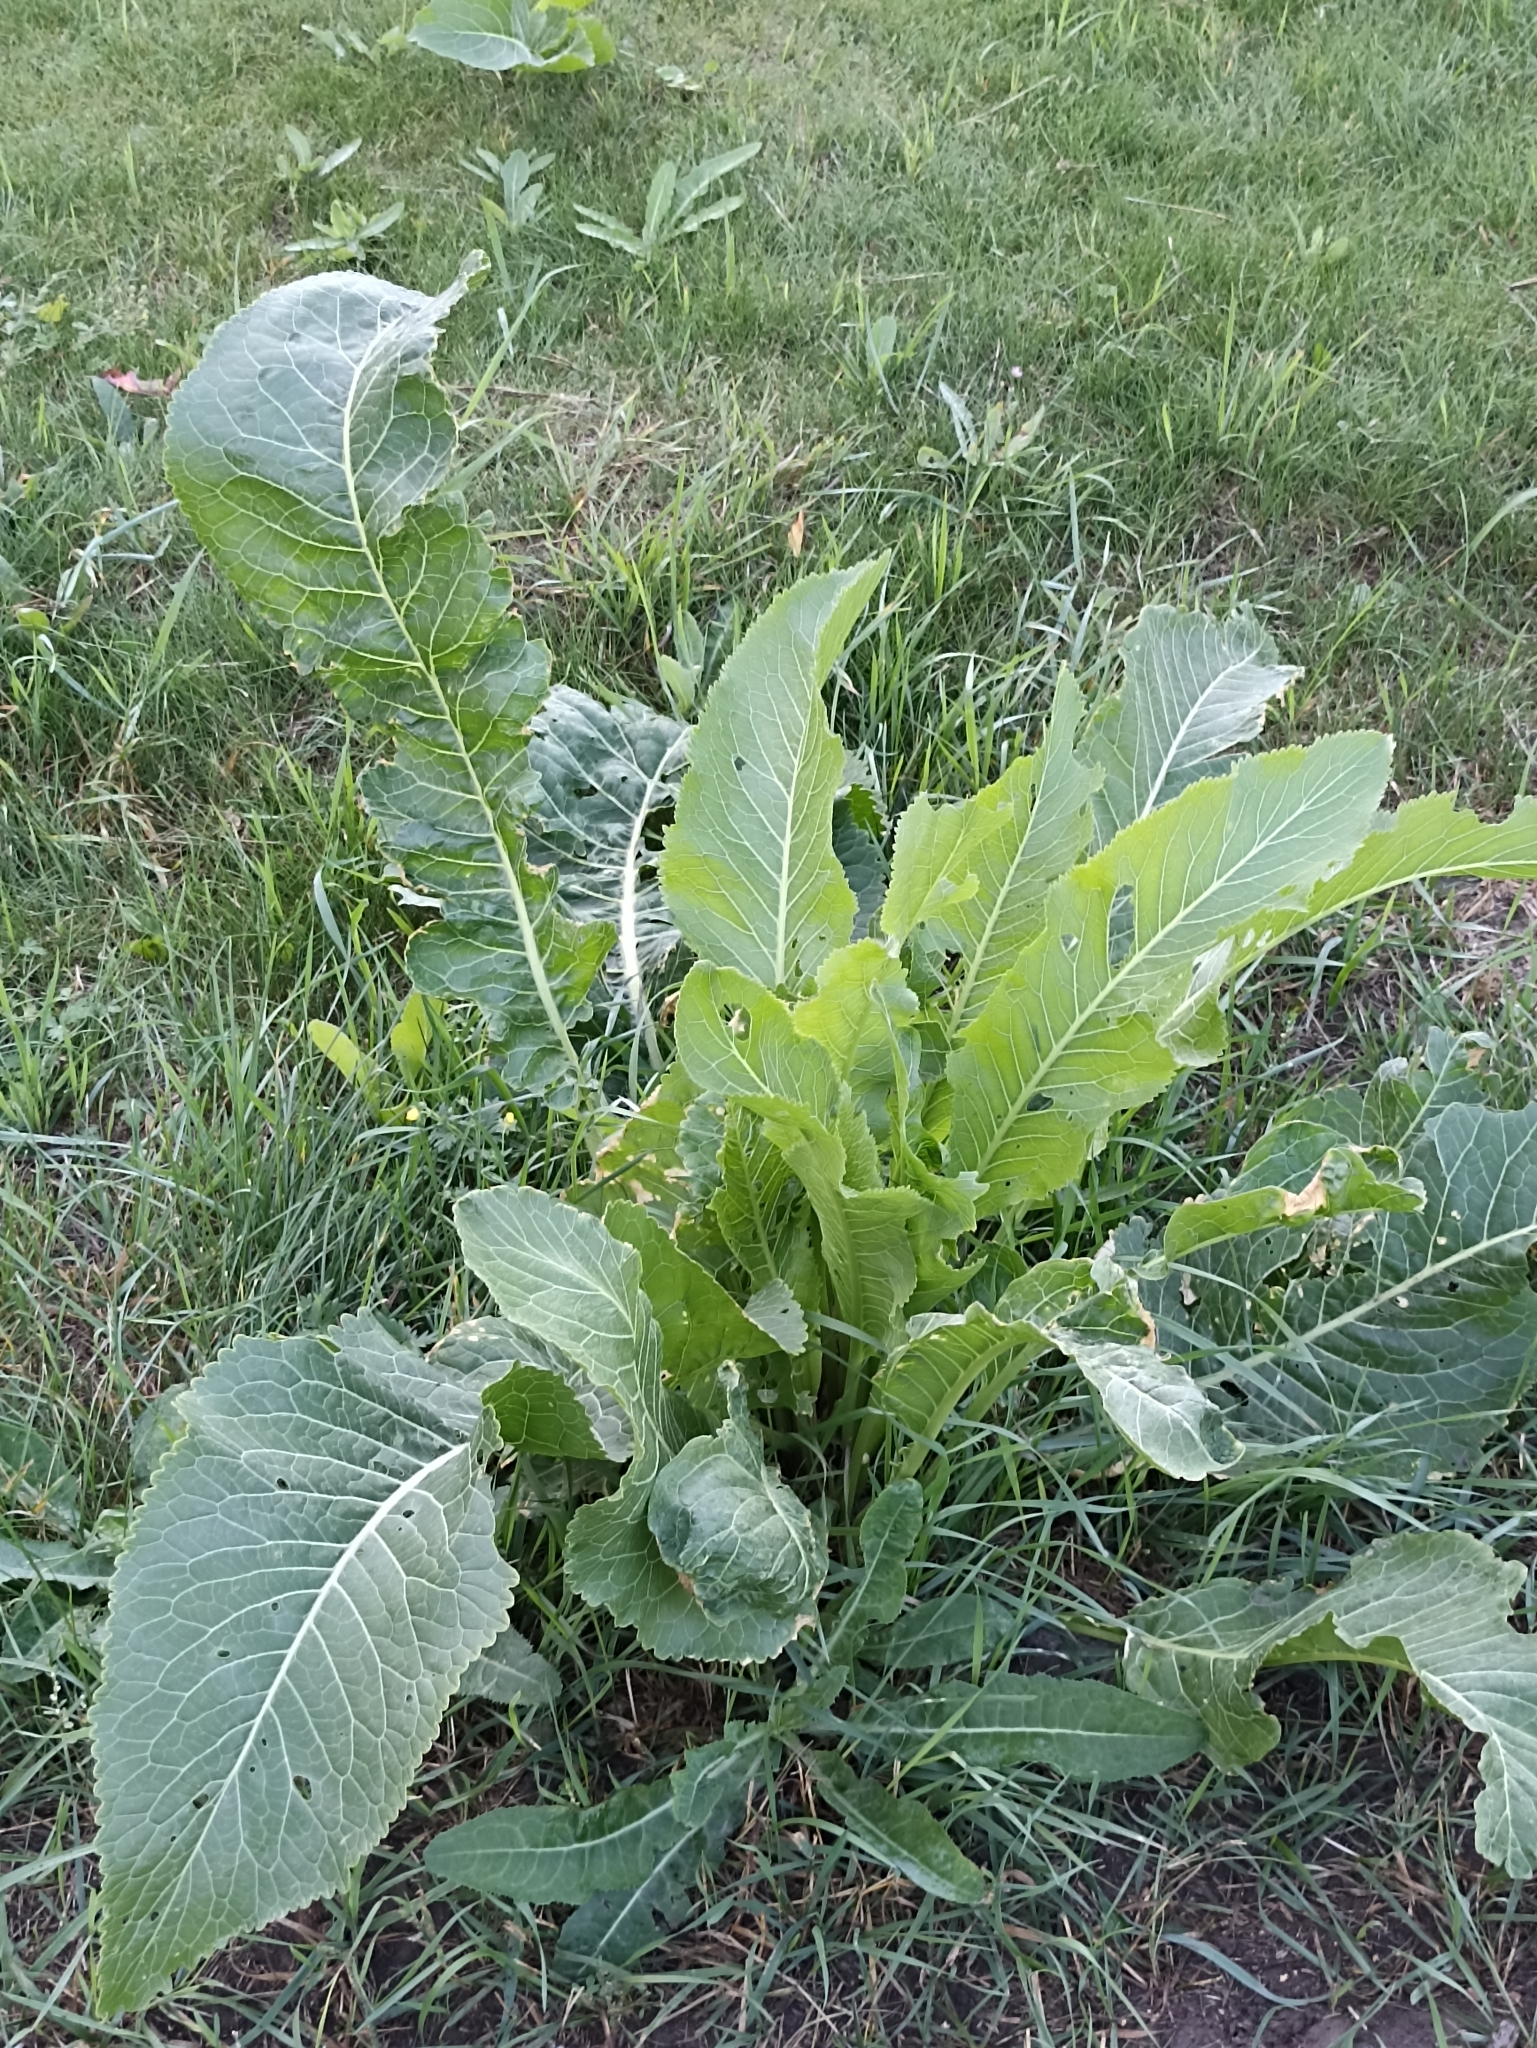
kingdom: Plantae
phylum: Tracheophyta
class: Magnoliopsida
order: Brassicales
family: Brassicaceae
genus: Armoracia
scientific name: Armoracia rusticana
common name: Horseradish
